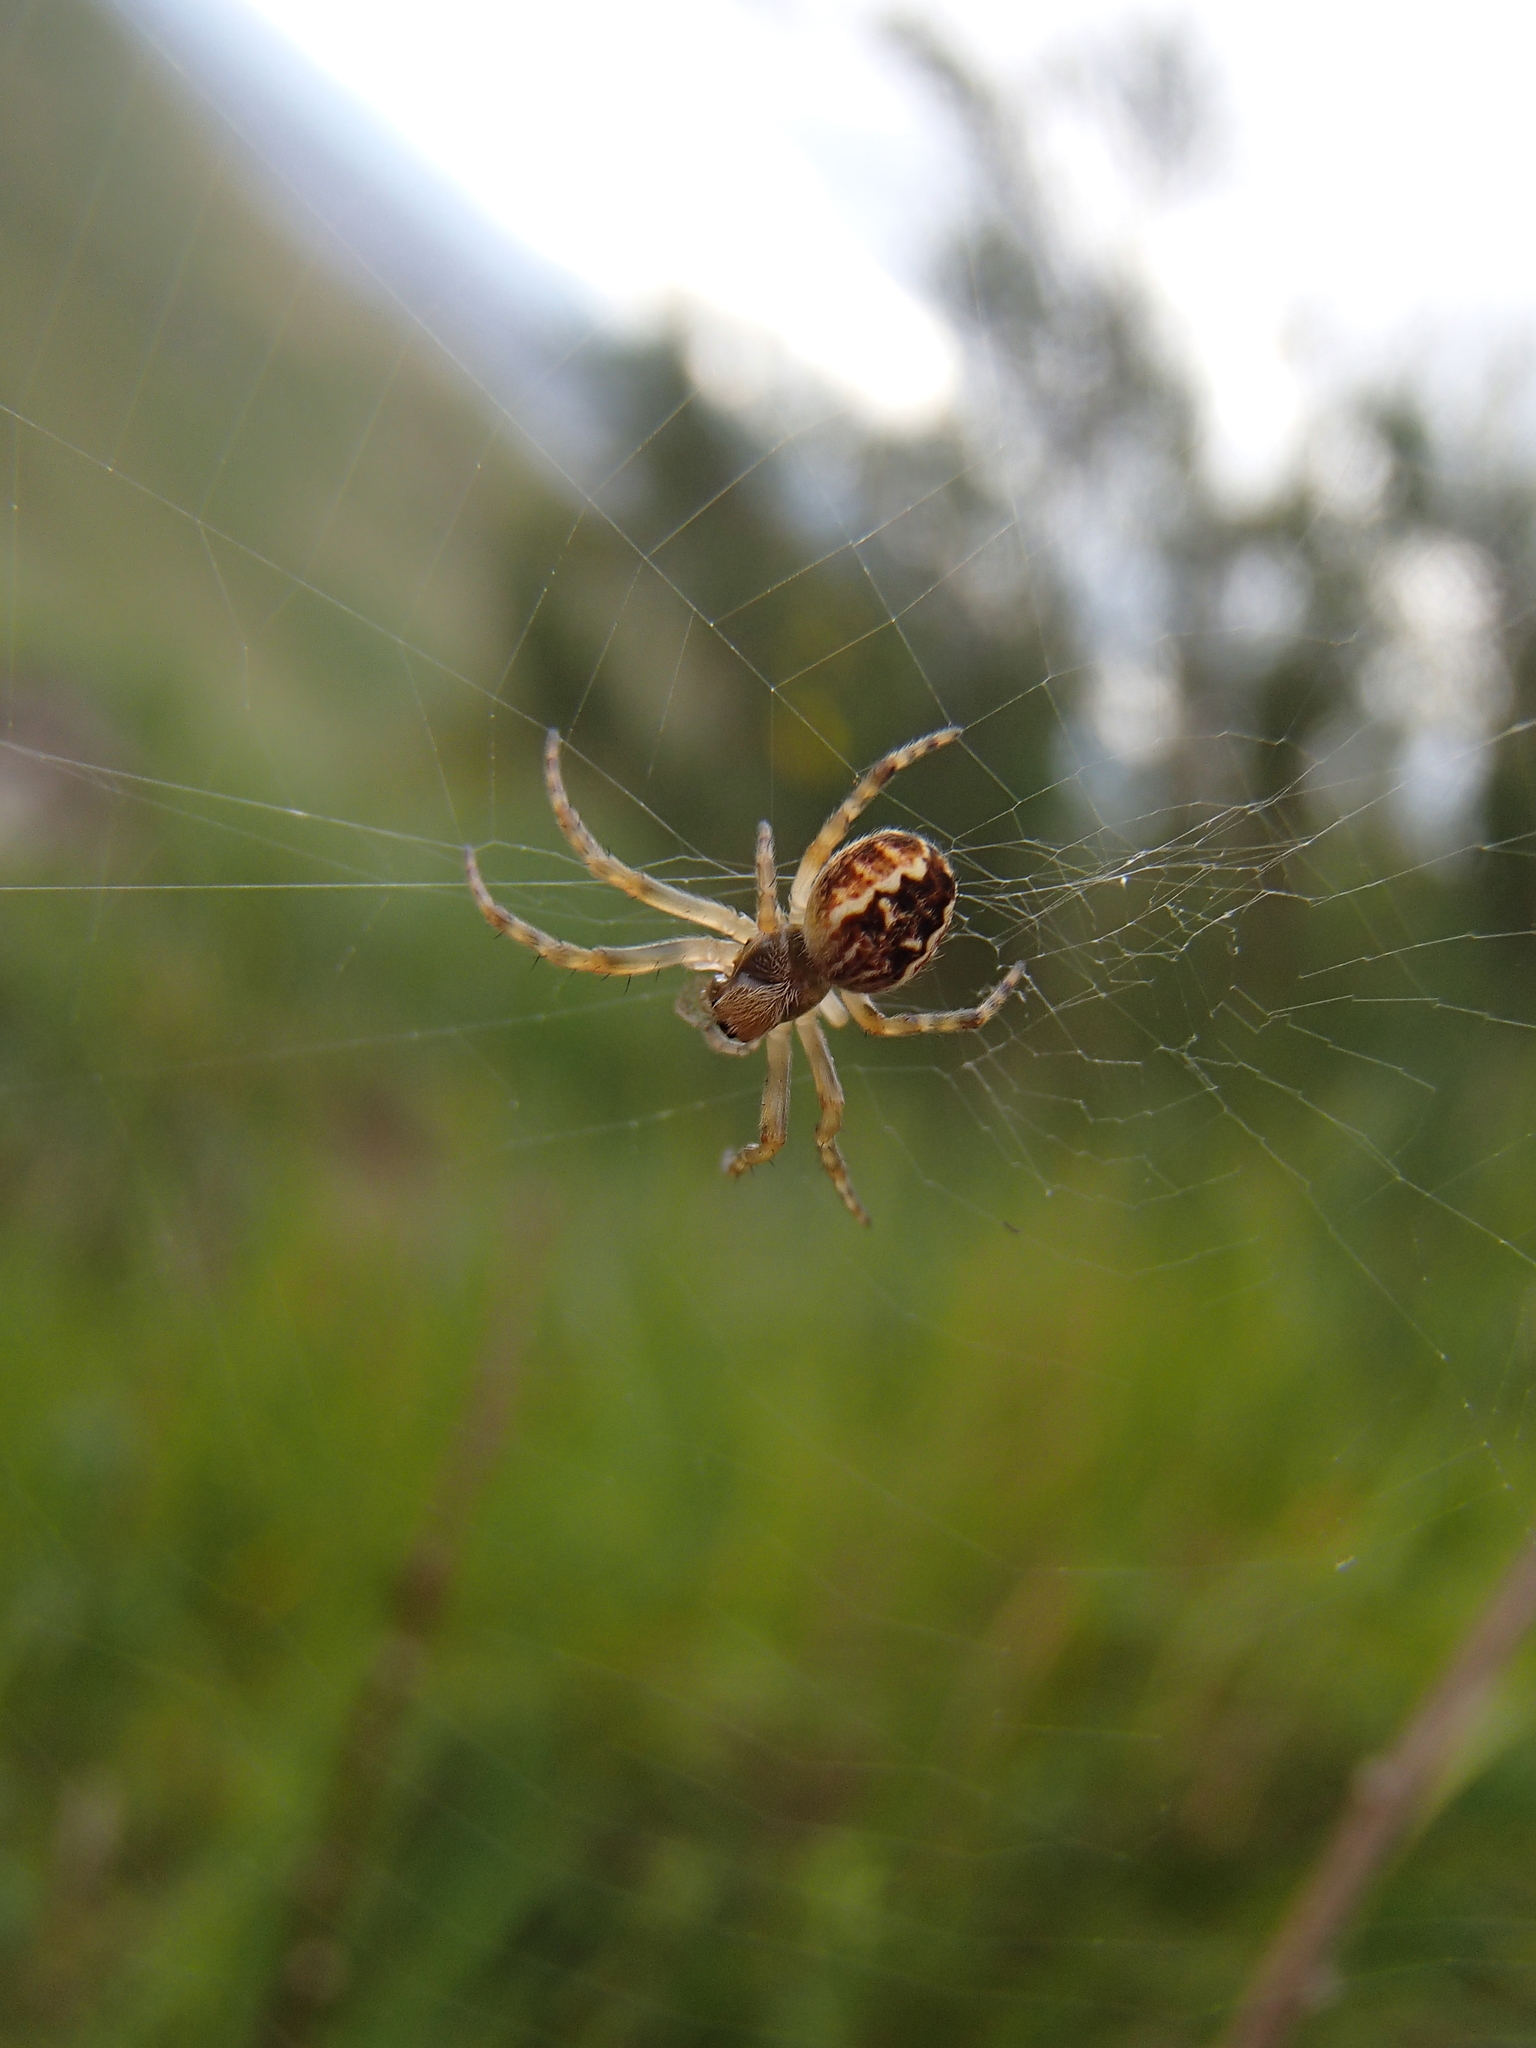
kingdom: Animalia
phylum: Arthropoda
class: Arachnida
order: Araneae
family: Araneidae
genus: Salsa
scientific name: Salsa fuliginata
